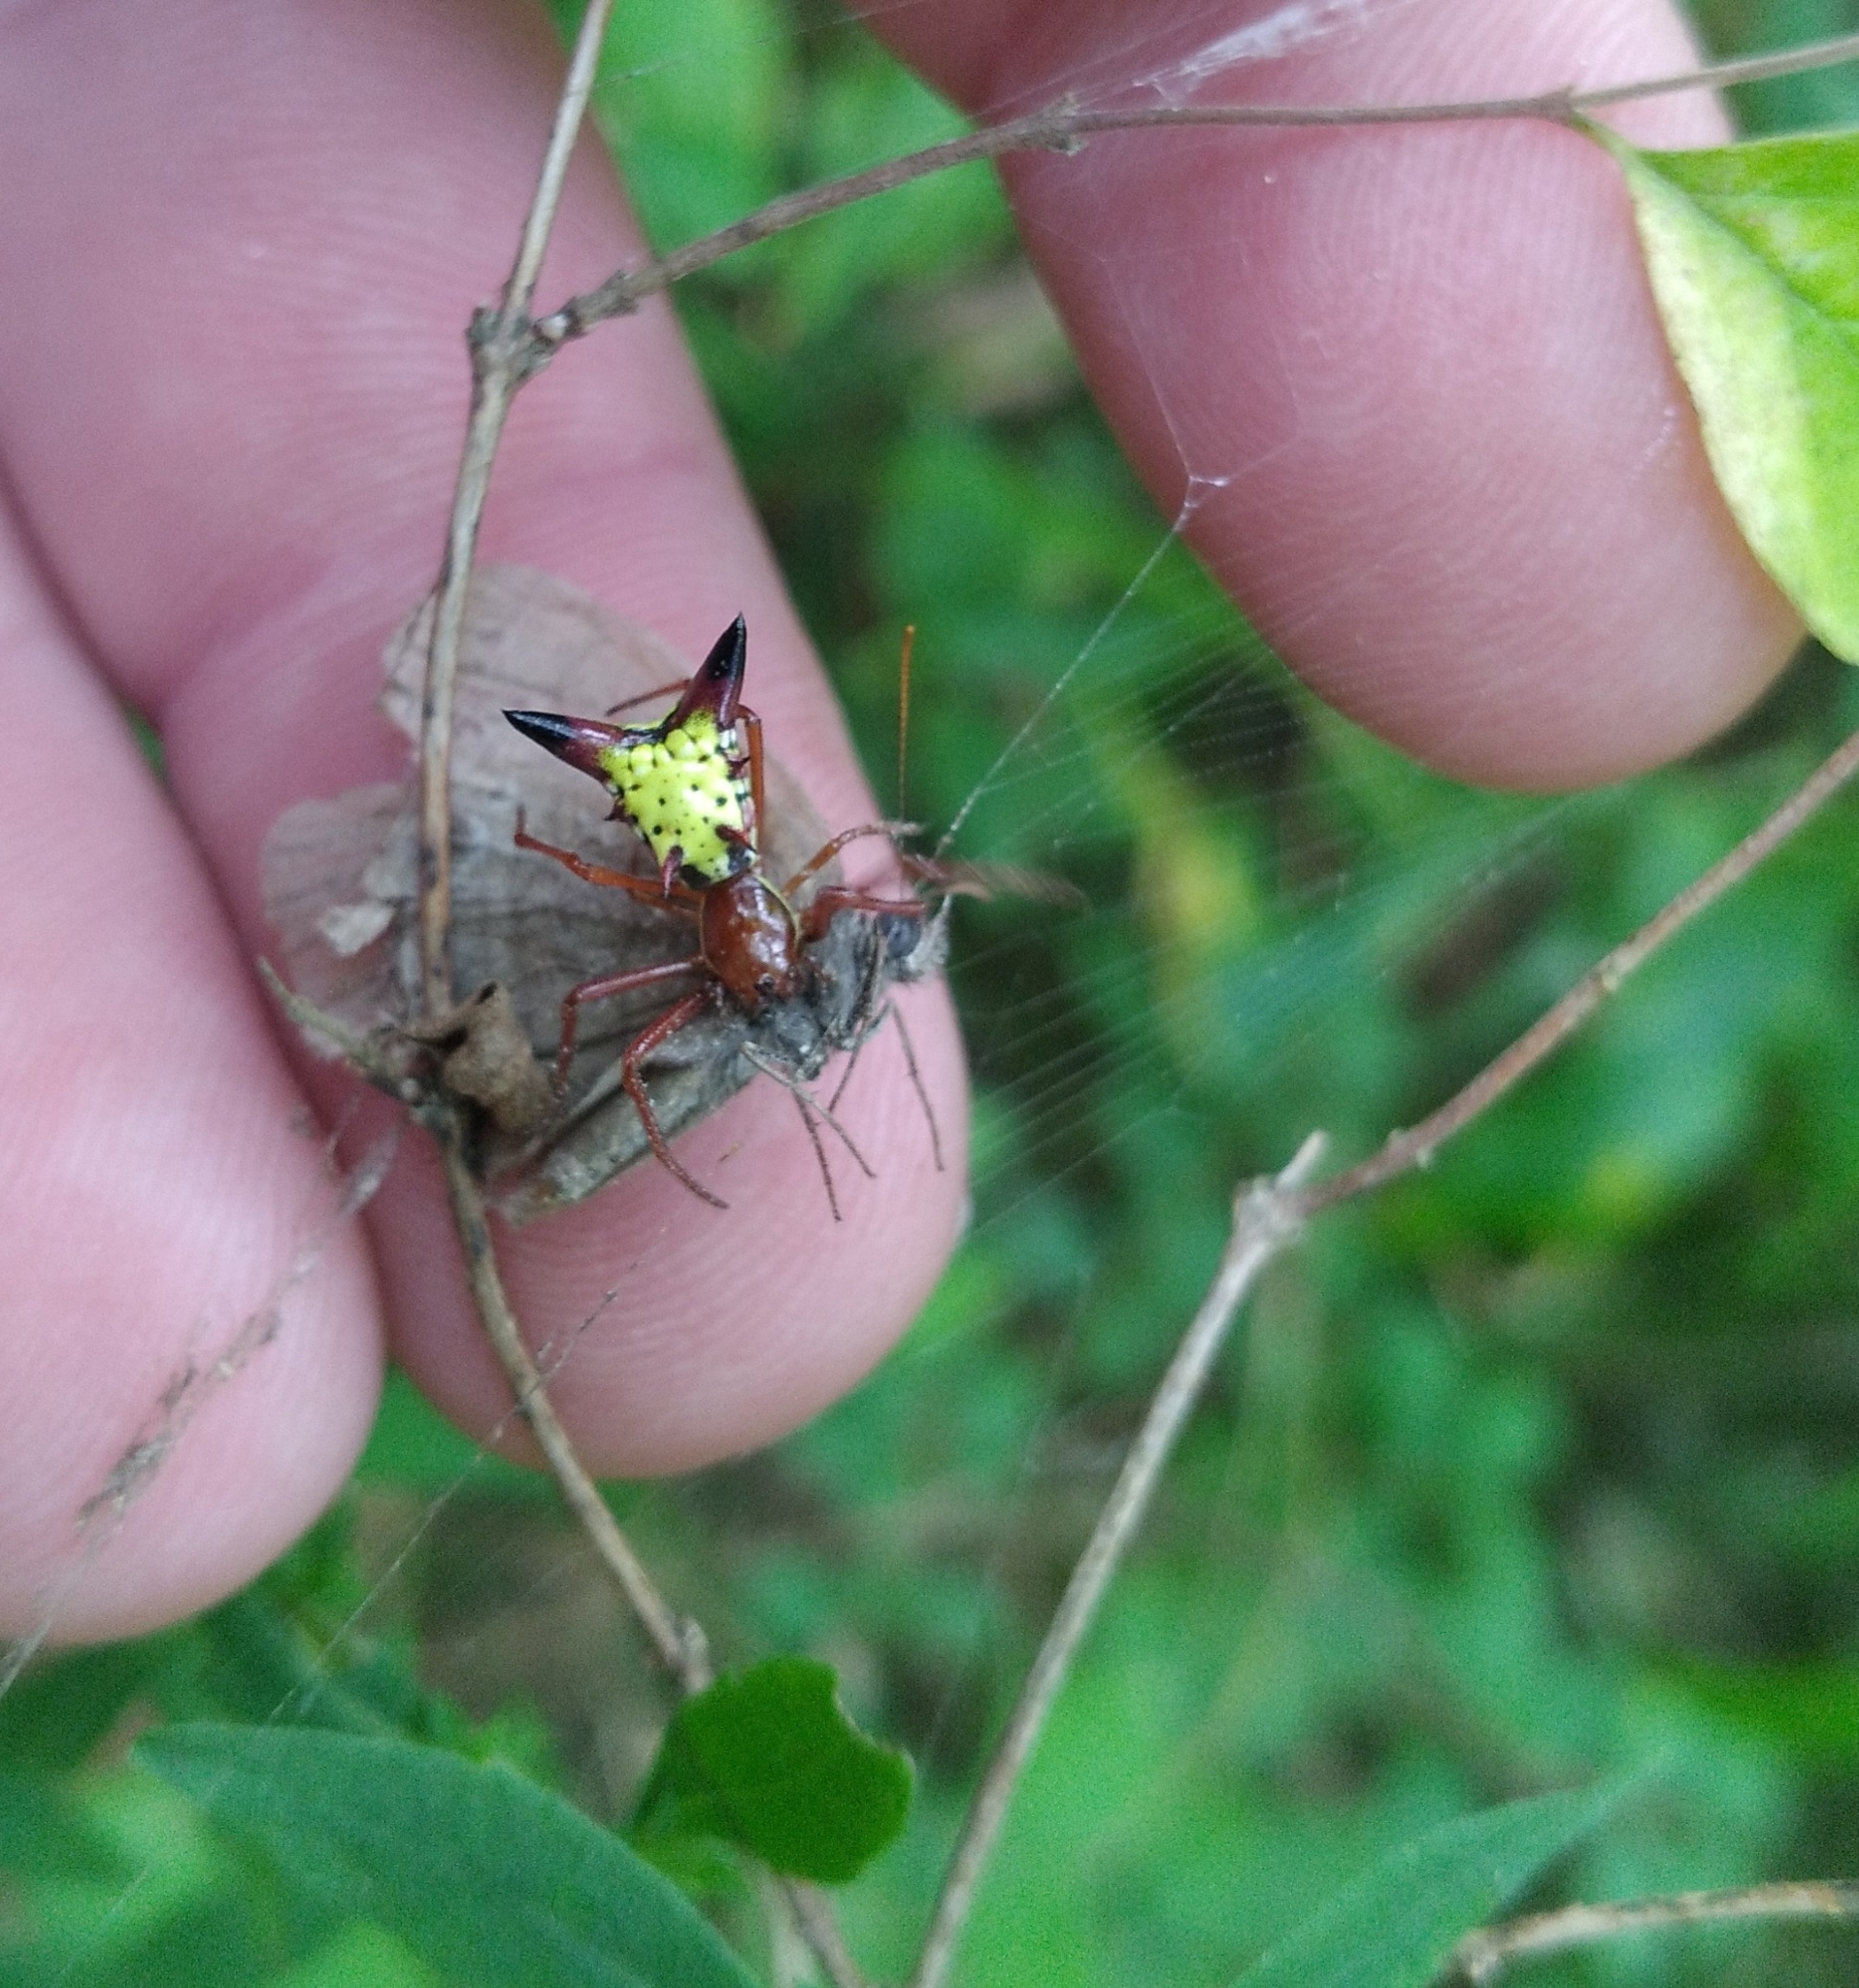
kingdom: Animalia
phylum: Arthropoda
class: Arachnida
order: Araneae
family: Araneidae
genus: Micrathena
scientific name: Micrathena sagittata
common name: Orb weavers
